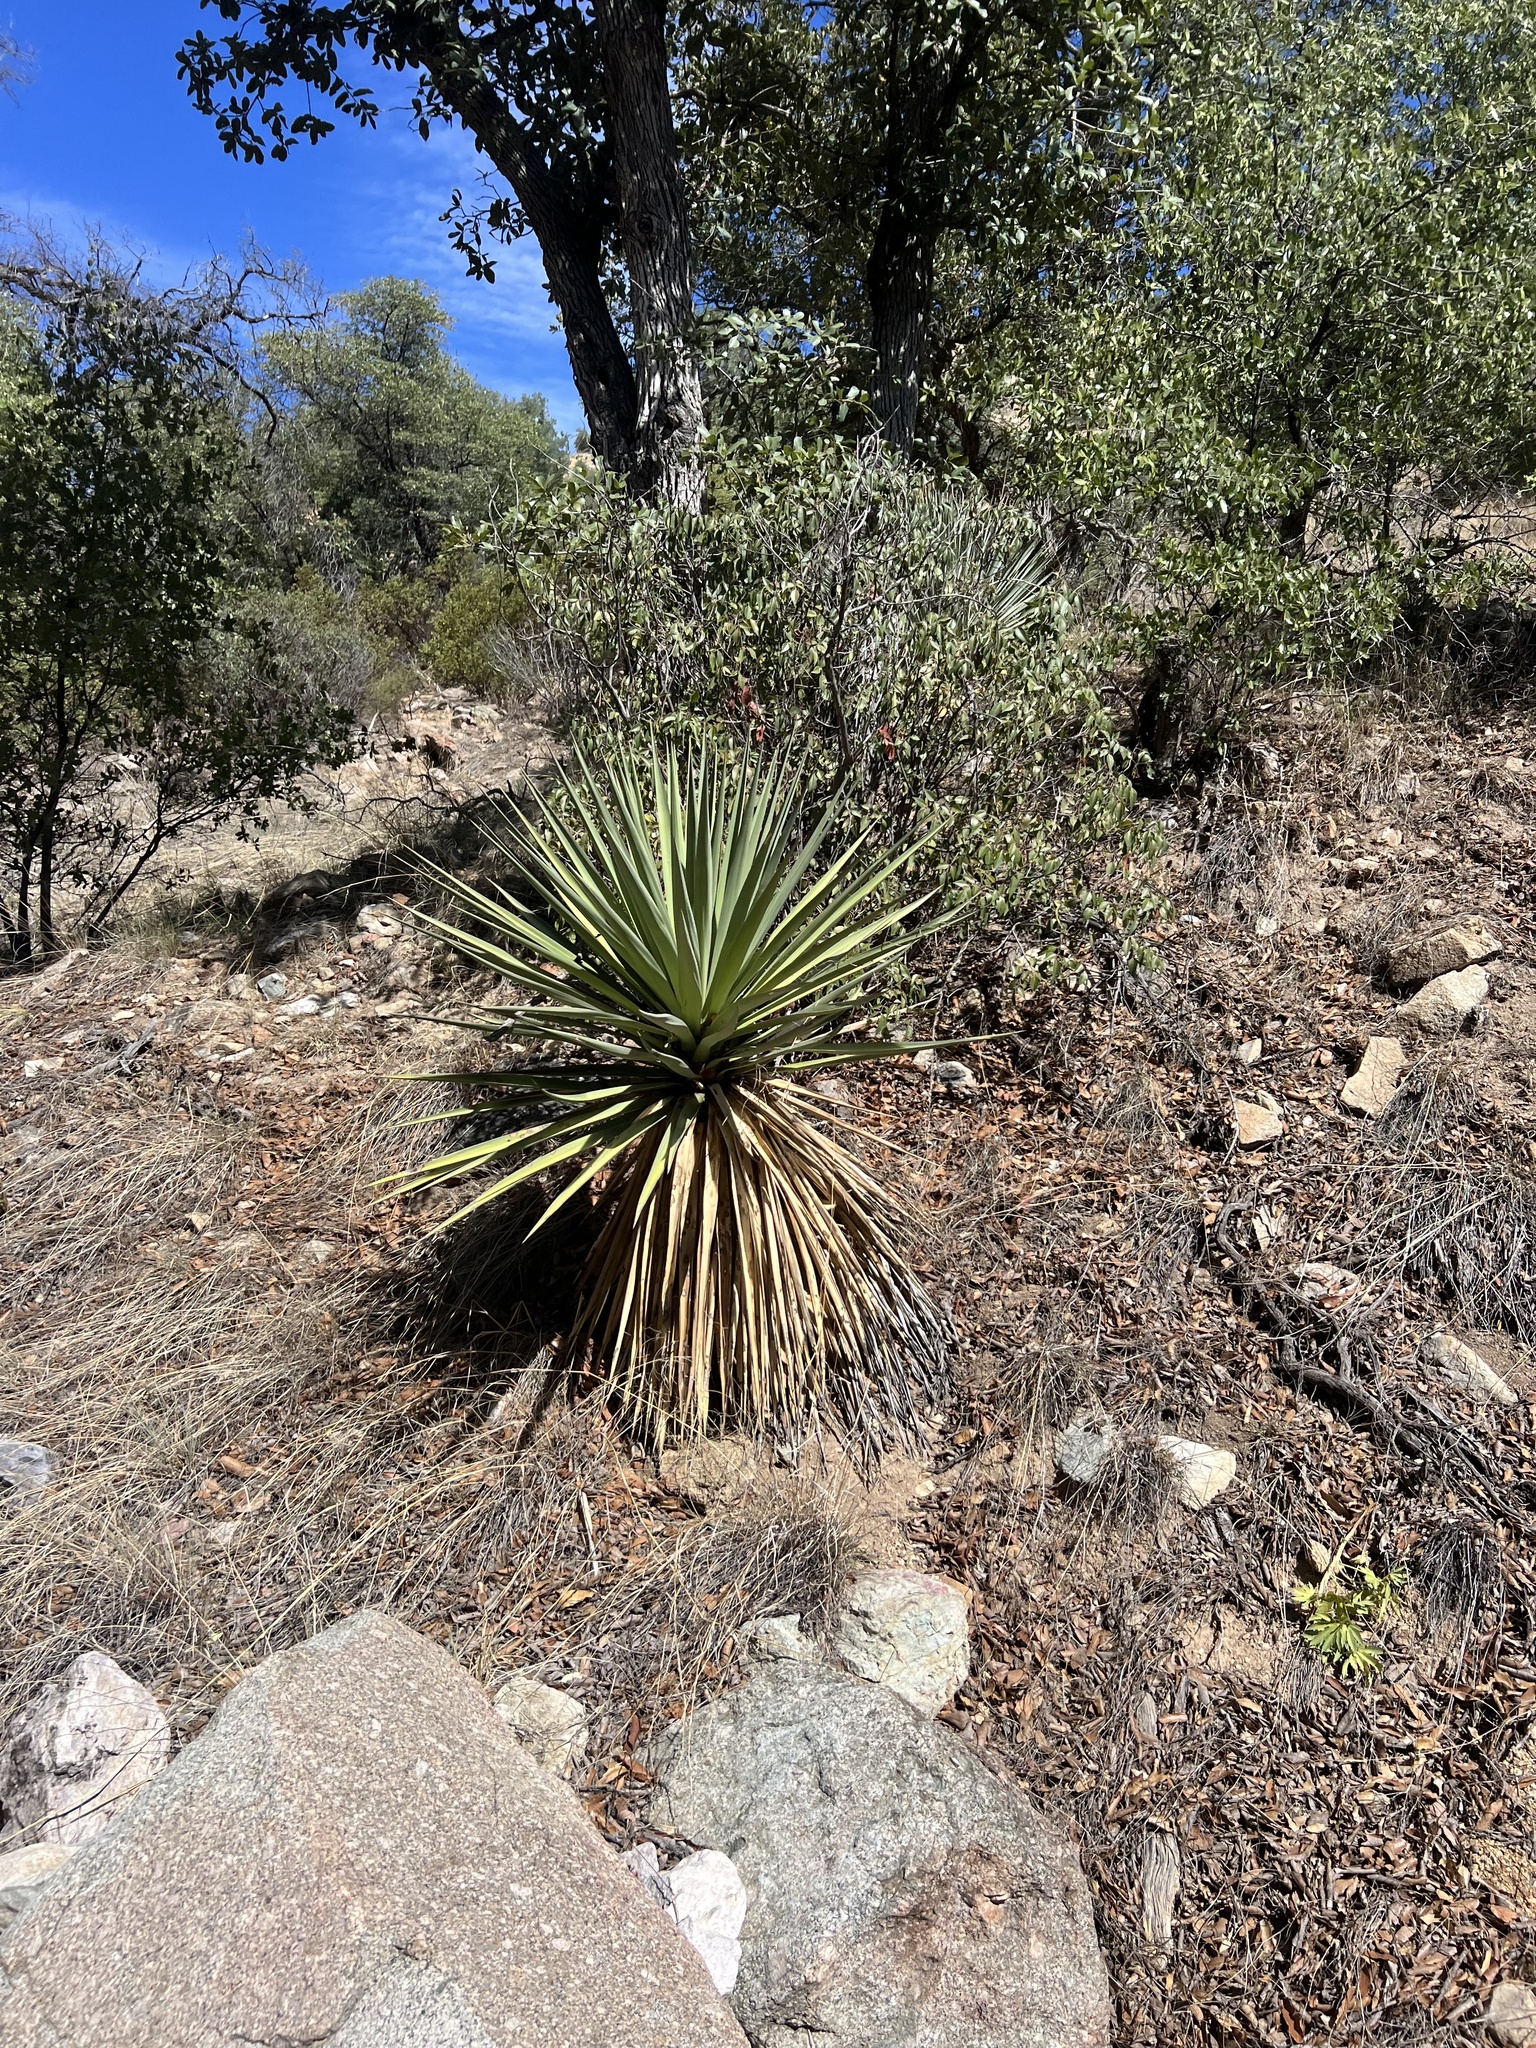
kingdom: Plantae
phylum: Tracheophyta
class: Liliopsida
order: Asparagales
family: Asparagaceae
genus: Yucca
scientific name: Yucca schottii
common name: Hoary yucca
